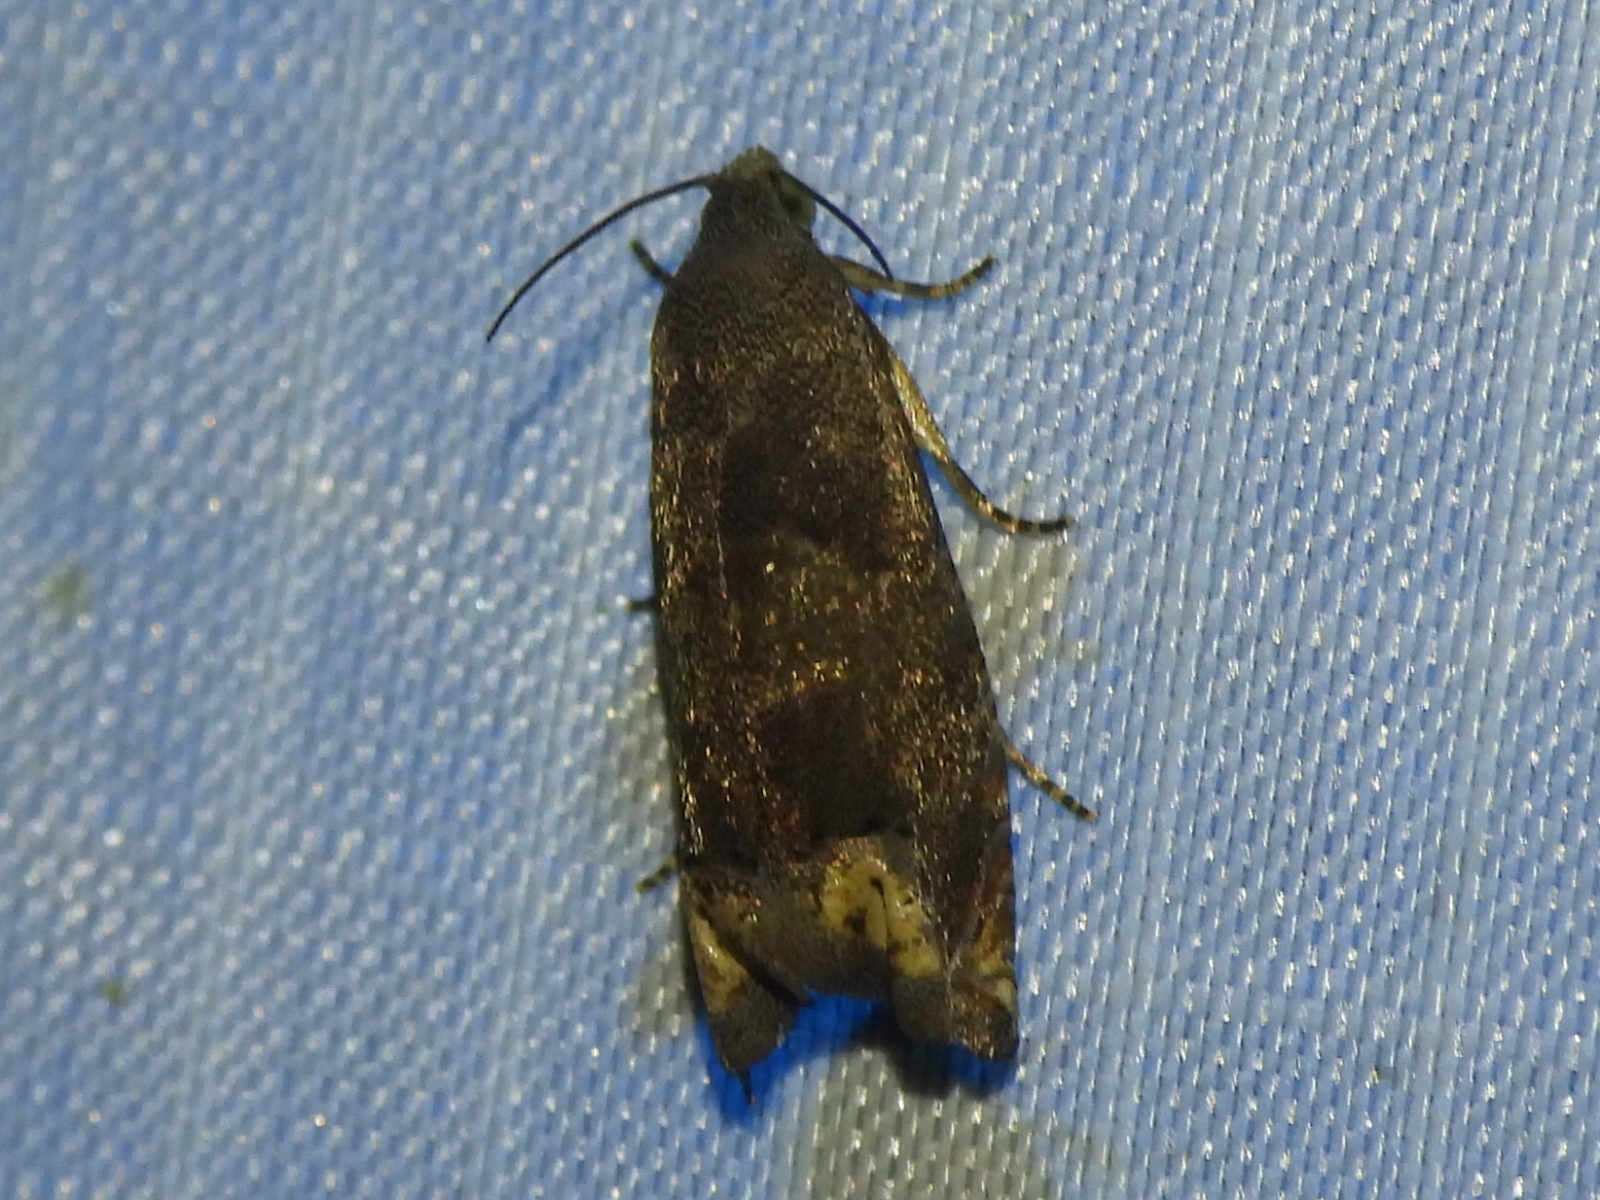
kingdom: Animalia
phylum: Arthropoda
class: Insecta
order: Lepidoptera
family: Tortricidae
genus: Epiblema
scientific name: Epiblema strenuana
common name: Ragweed borer moth
